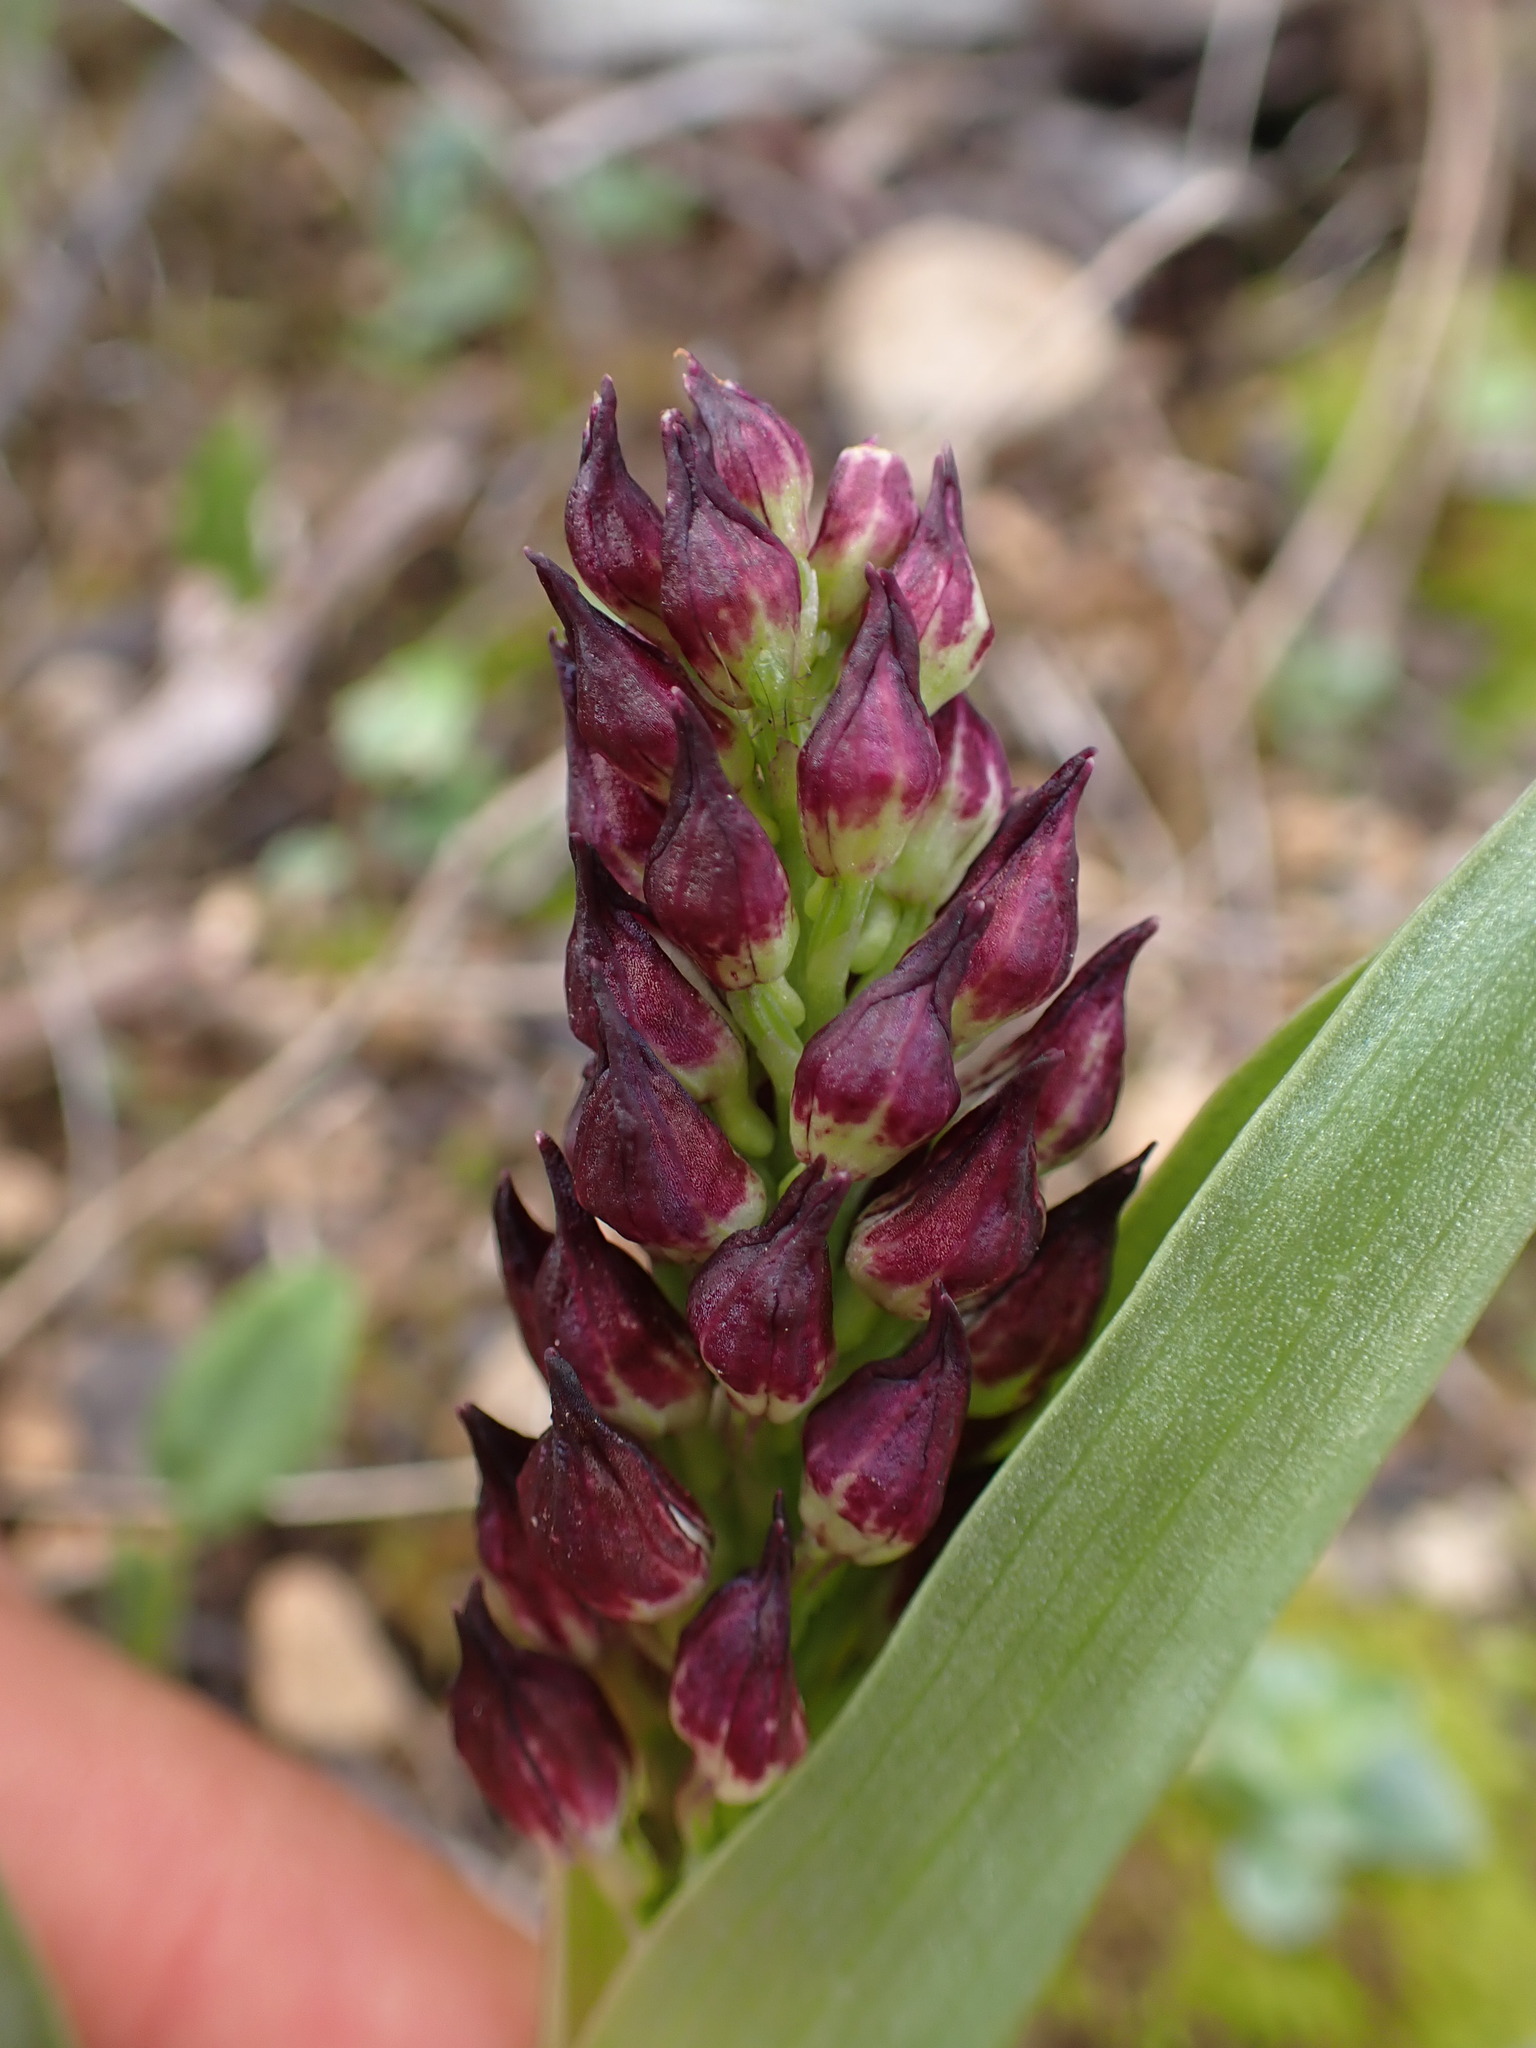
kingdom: Plantae
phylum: Tracheophyta
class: Liliopsida
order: Asparagales
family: Orchidaceae
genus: Orchis
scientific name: Orchis purpurea
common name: Lady orchid
